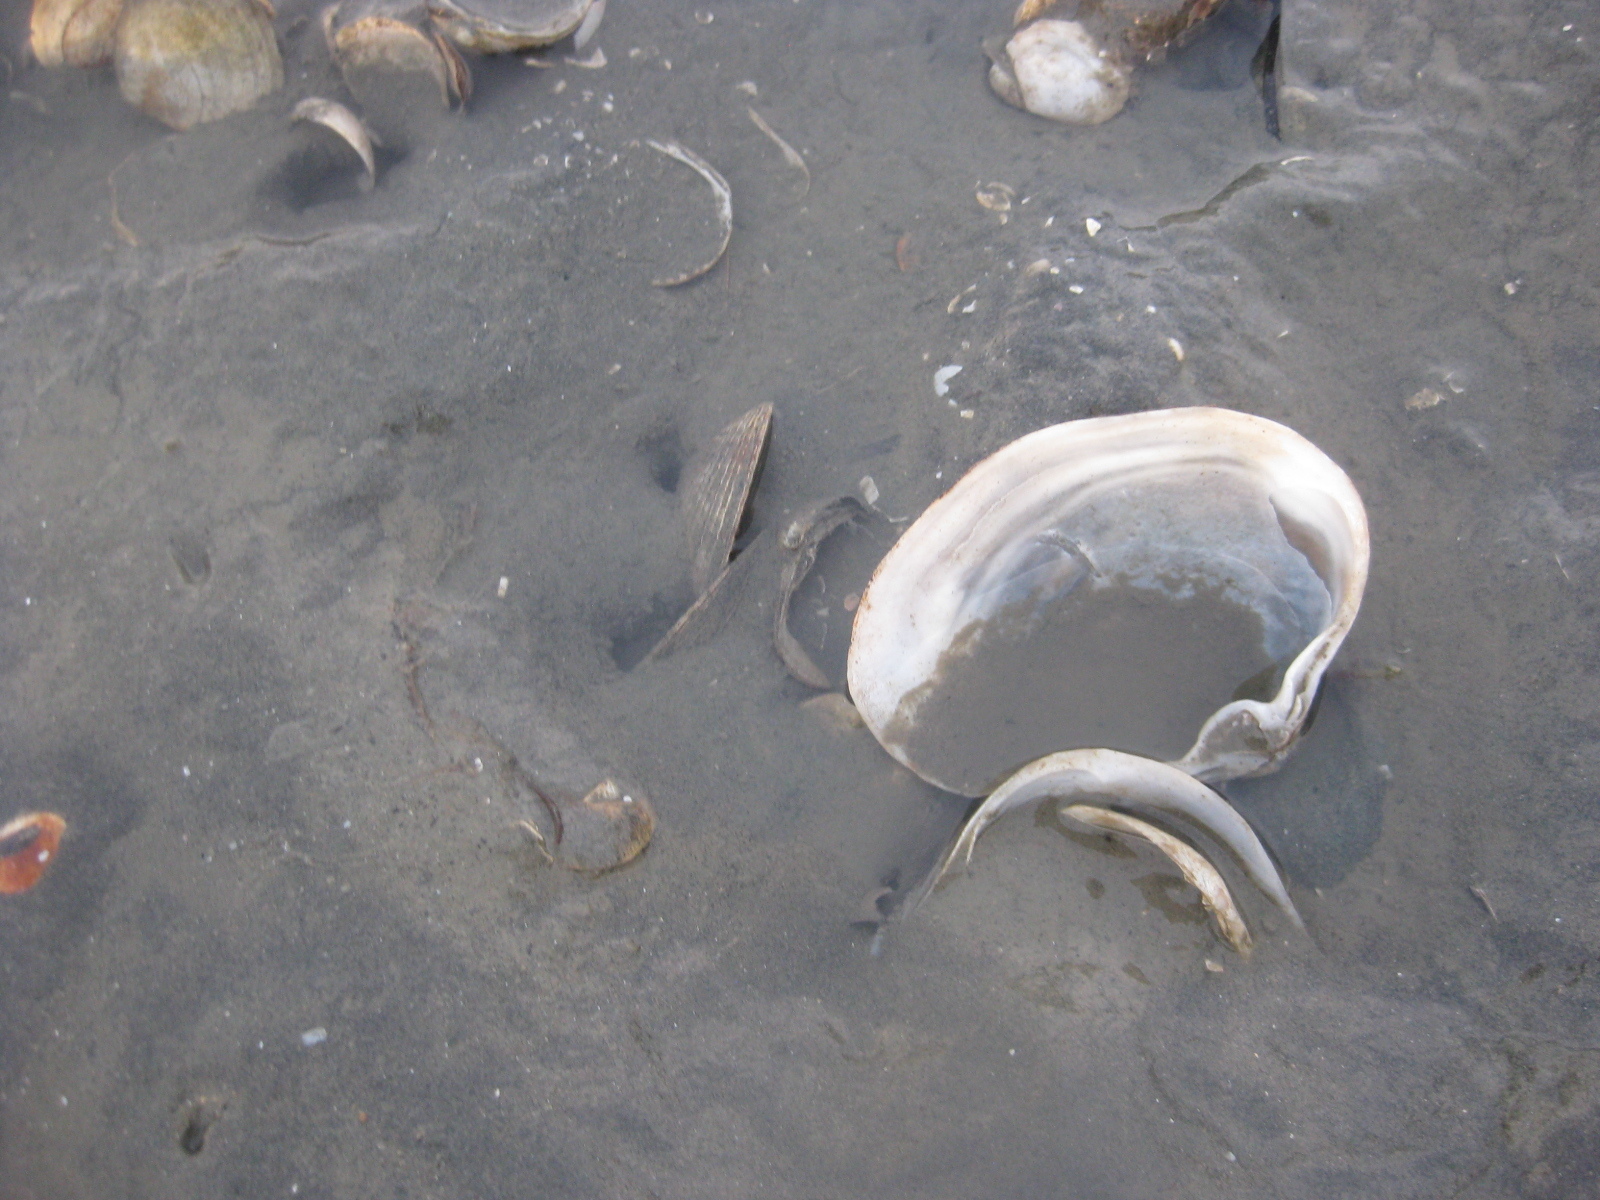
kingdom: Animalia
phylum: Mollusca
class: Bivalvia
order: Venerida
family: Mactridae
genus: Cyclomactra
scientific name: Cyclomactra ovata
